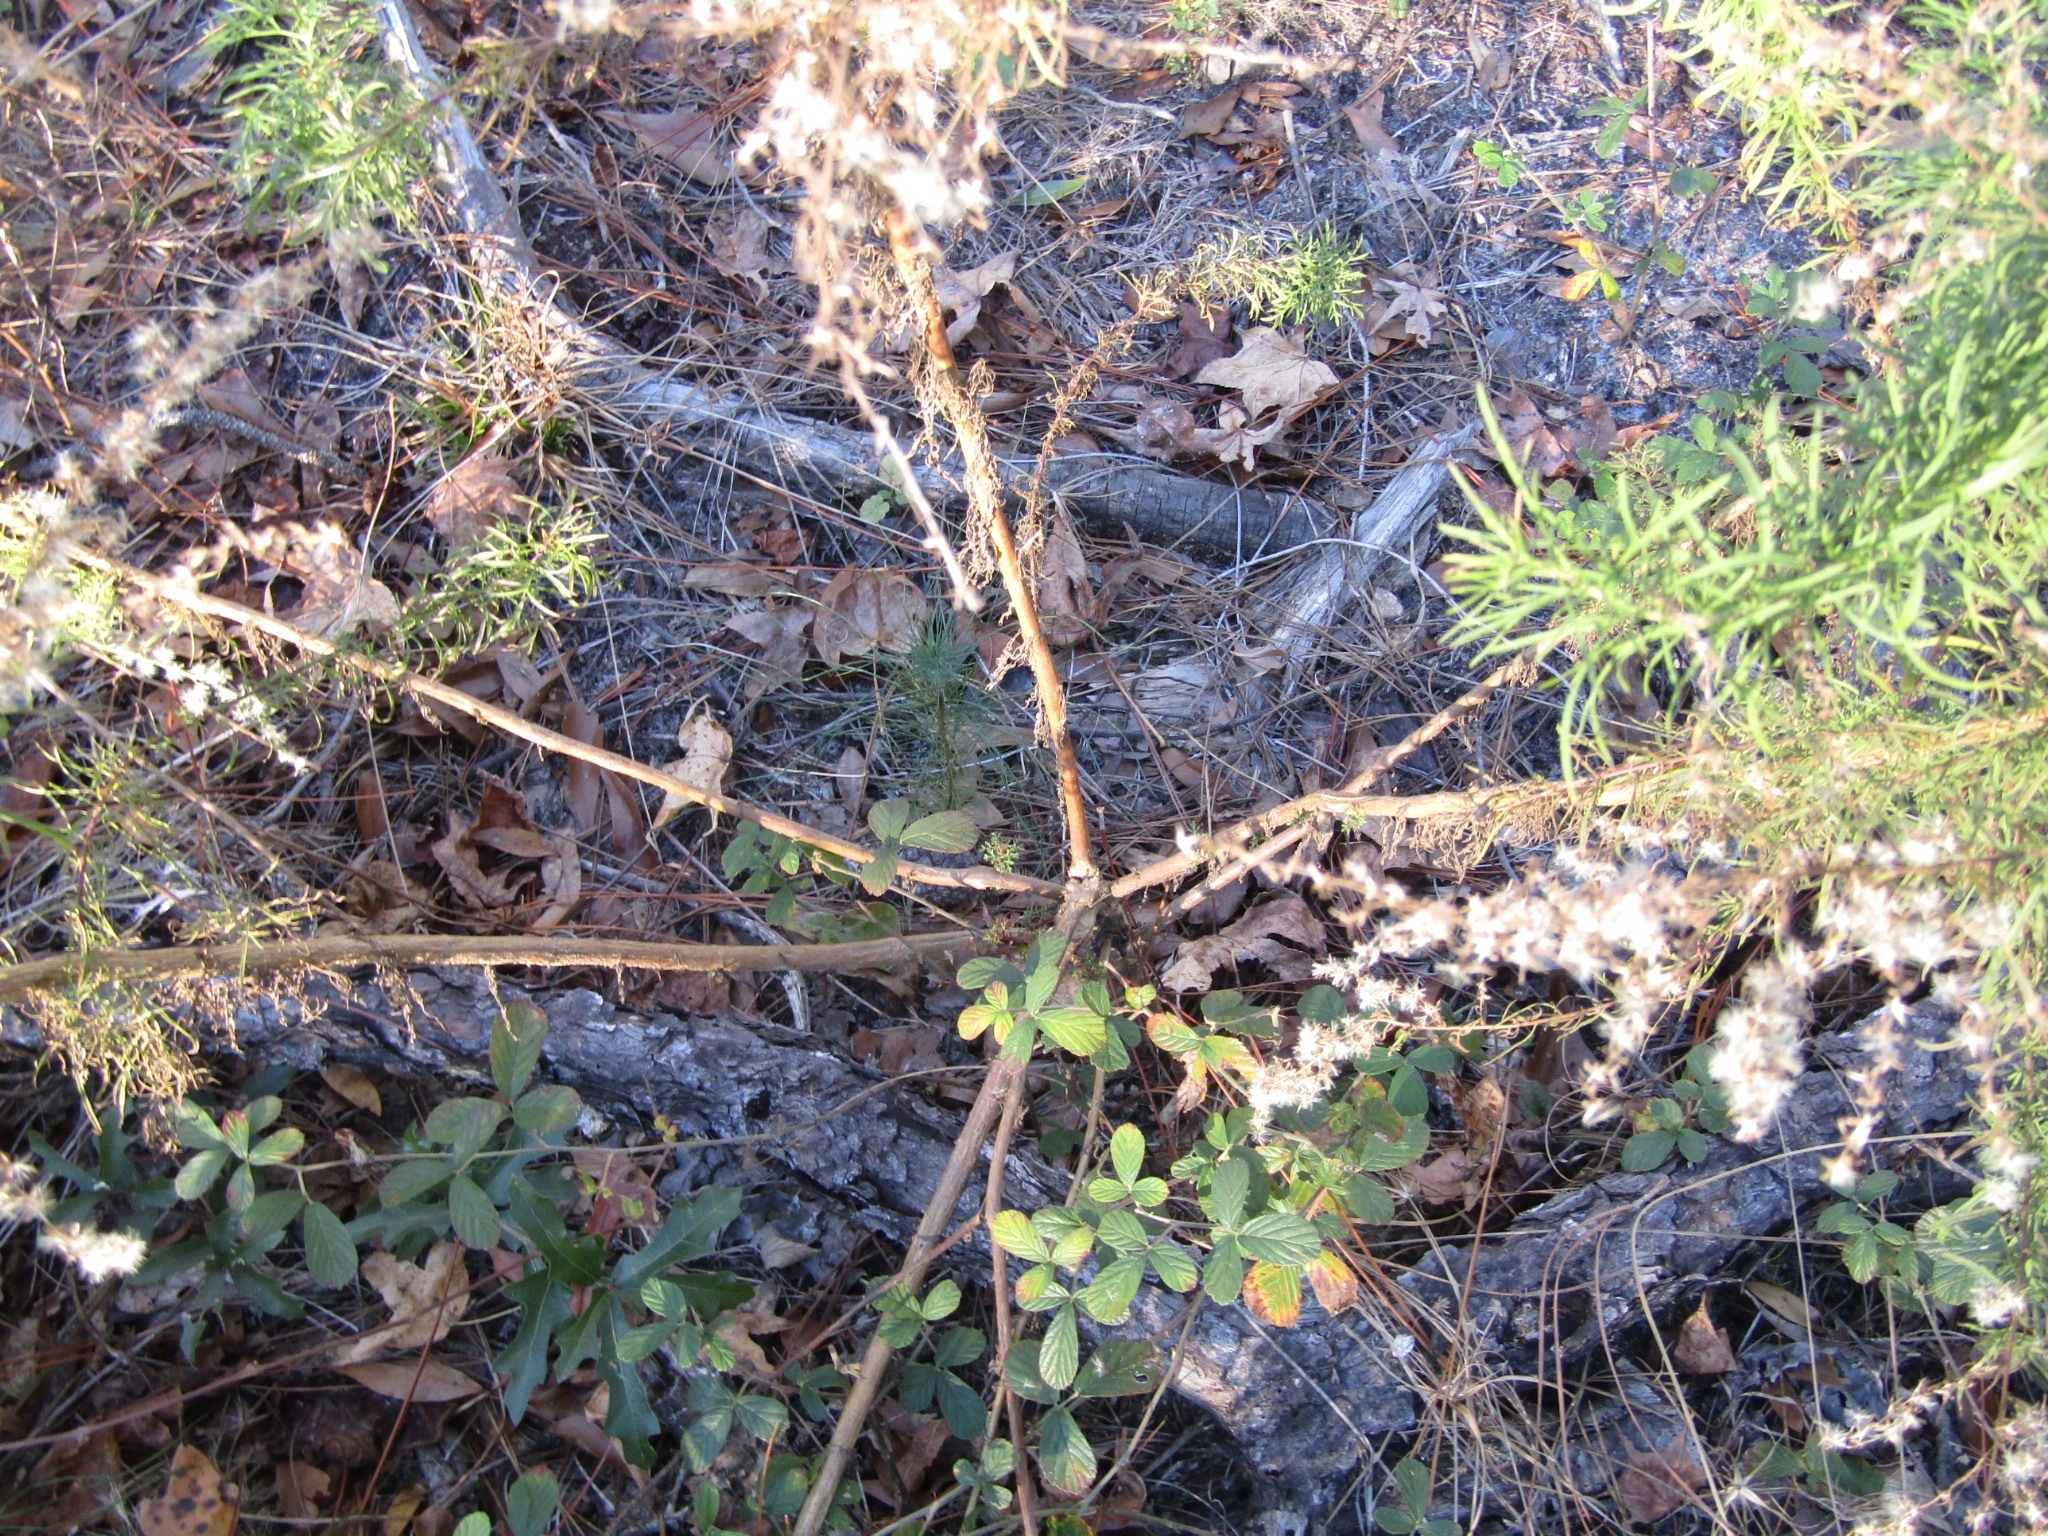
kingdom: Plantae
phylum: Tracheophyta
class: Magnoliopsida
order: Asterales
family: Asteraceae
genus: Eupatorium
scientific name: Eupatorium capillifolium
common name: Dog-fennel
